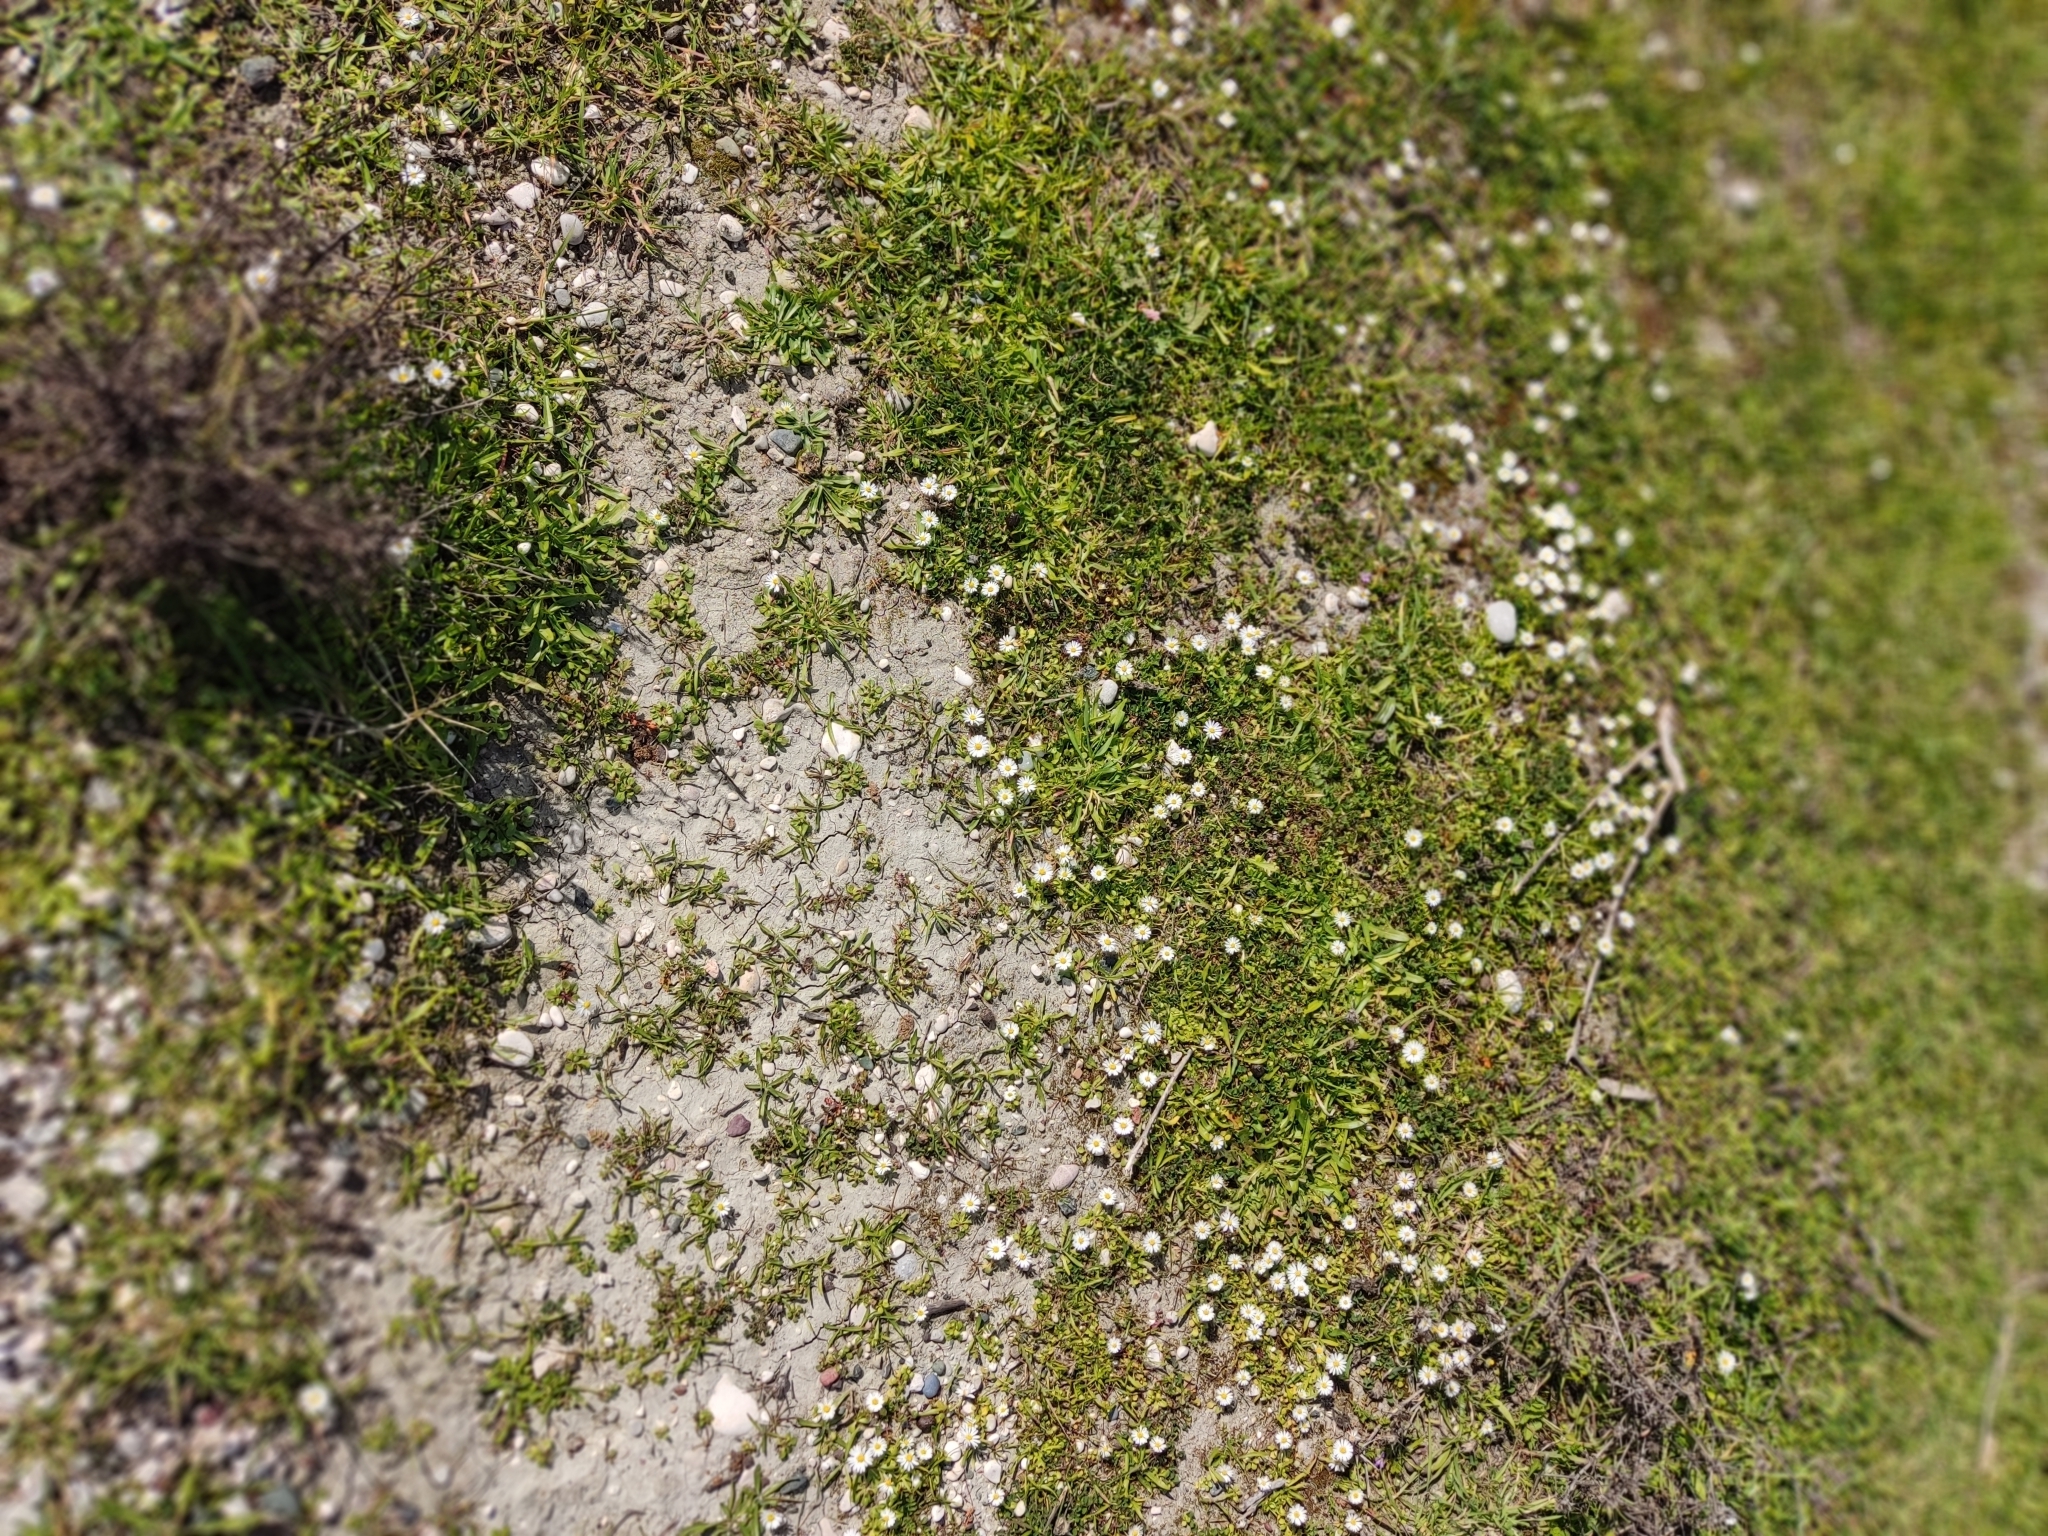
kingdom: Plantae
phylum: Tracheophyta
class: Magnoliopsida
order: Asterales
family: Asteraceae
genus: Bellis
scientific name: Bellis perennis
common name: Lawndaisy
